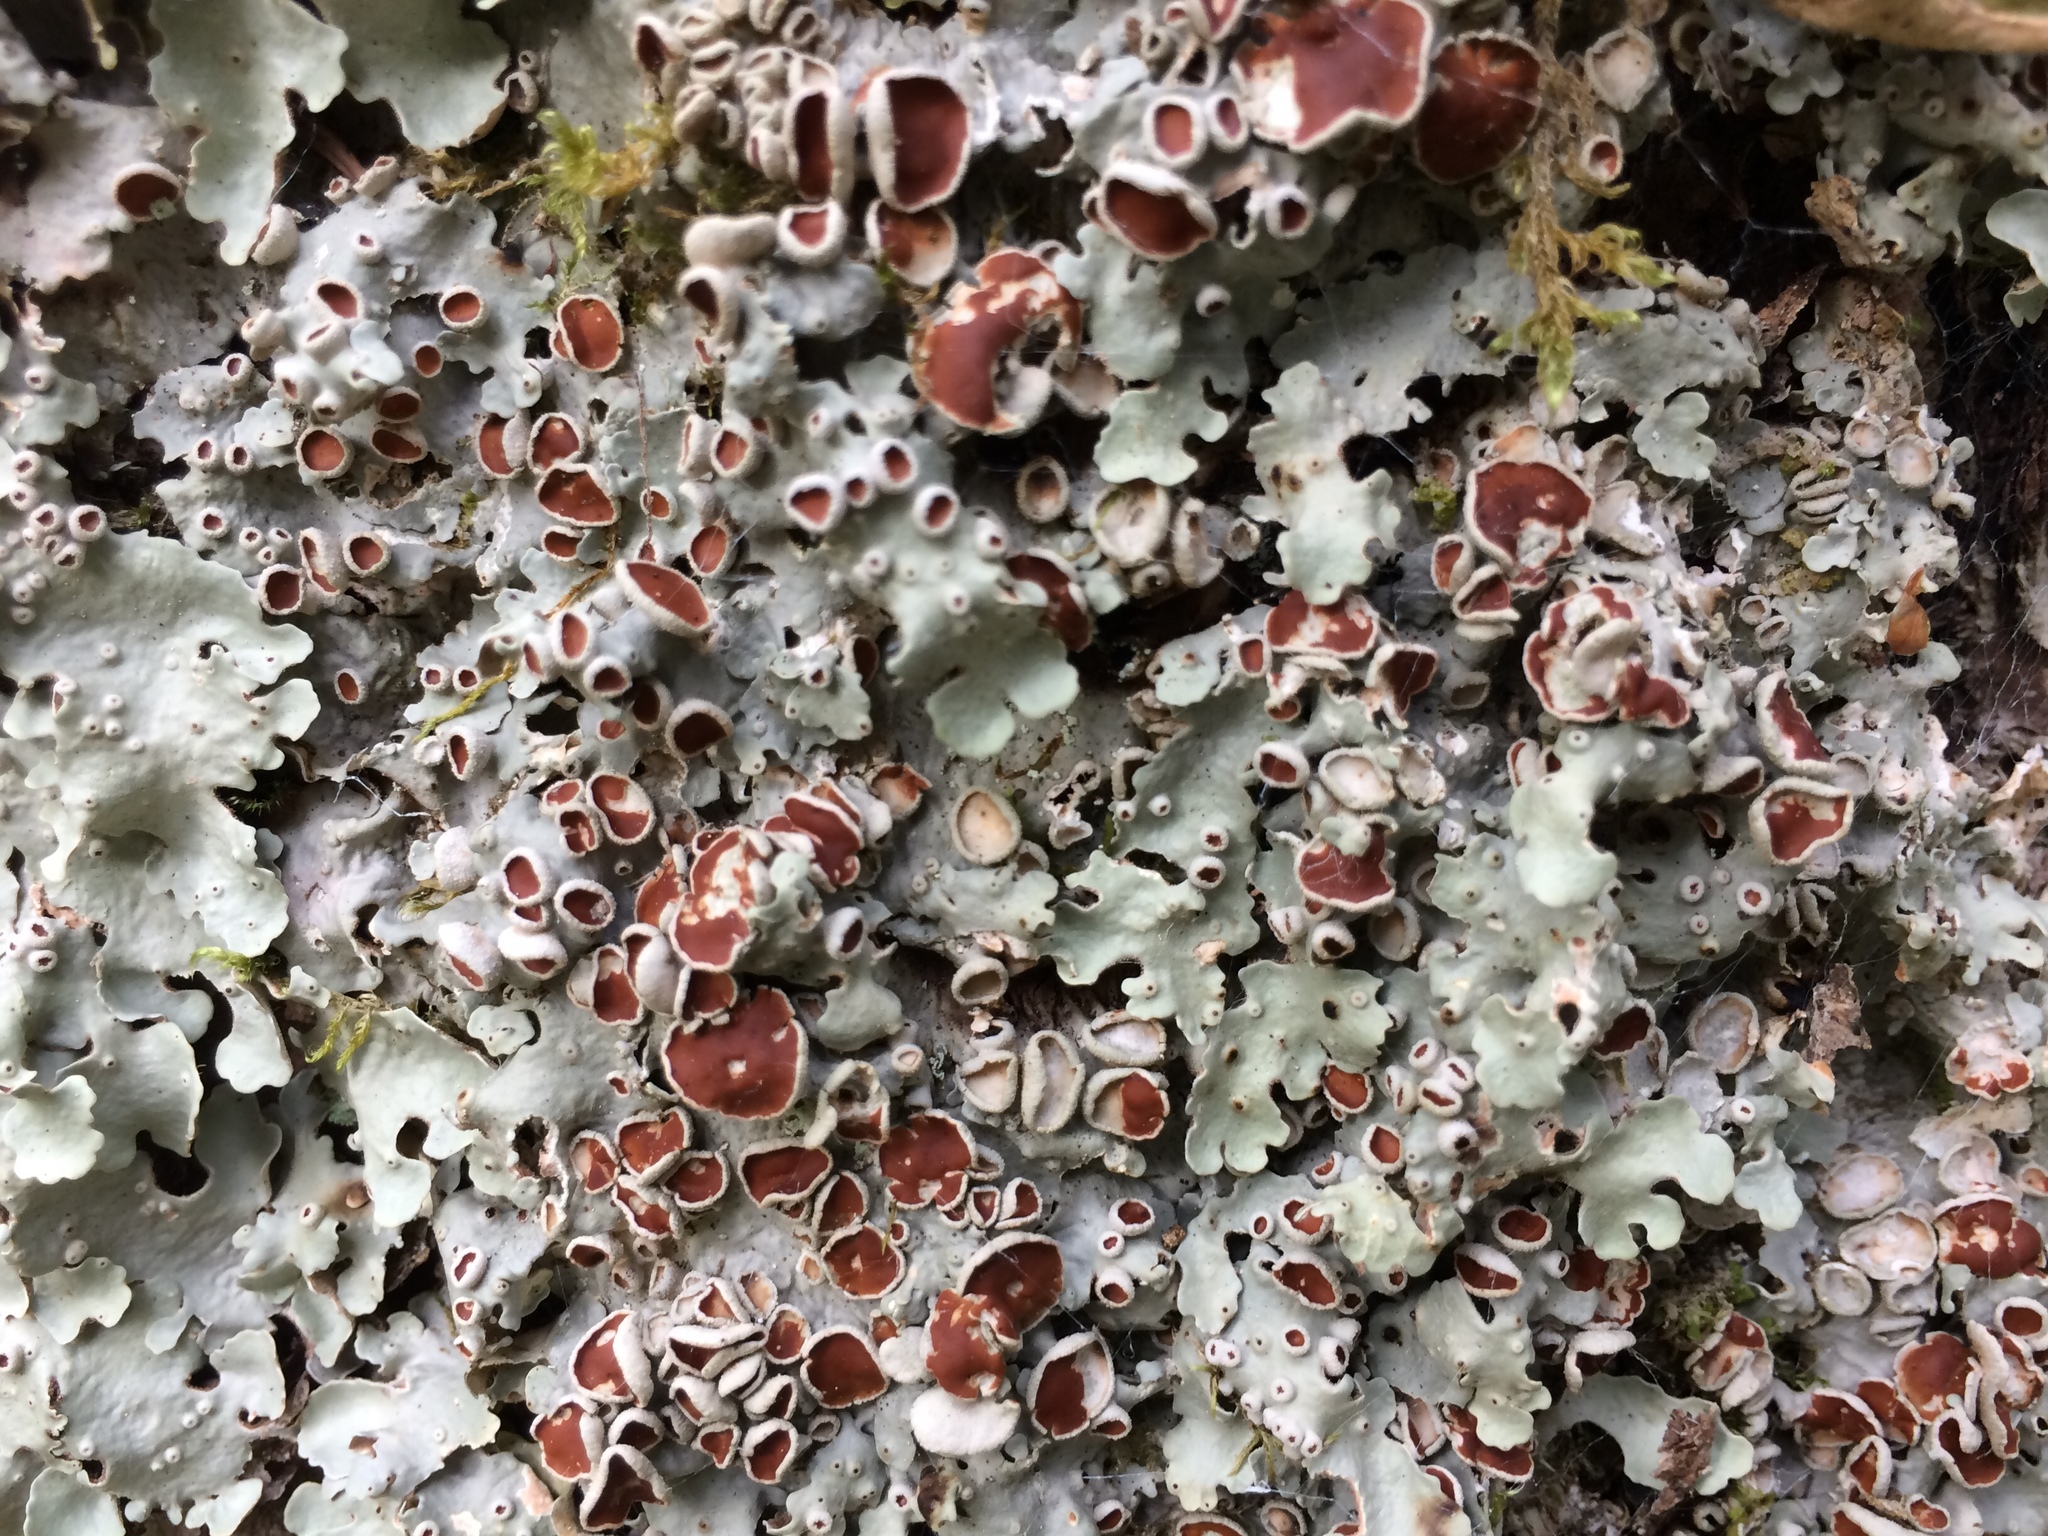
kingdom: Fungi
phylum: Ascomycota
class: Lecanoromycetes
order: Peltigerales
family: Lobariaceae
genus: Ricasolia
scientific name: Ricasolia quercizans
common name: Smooth lungwort
